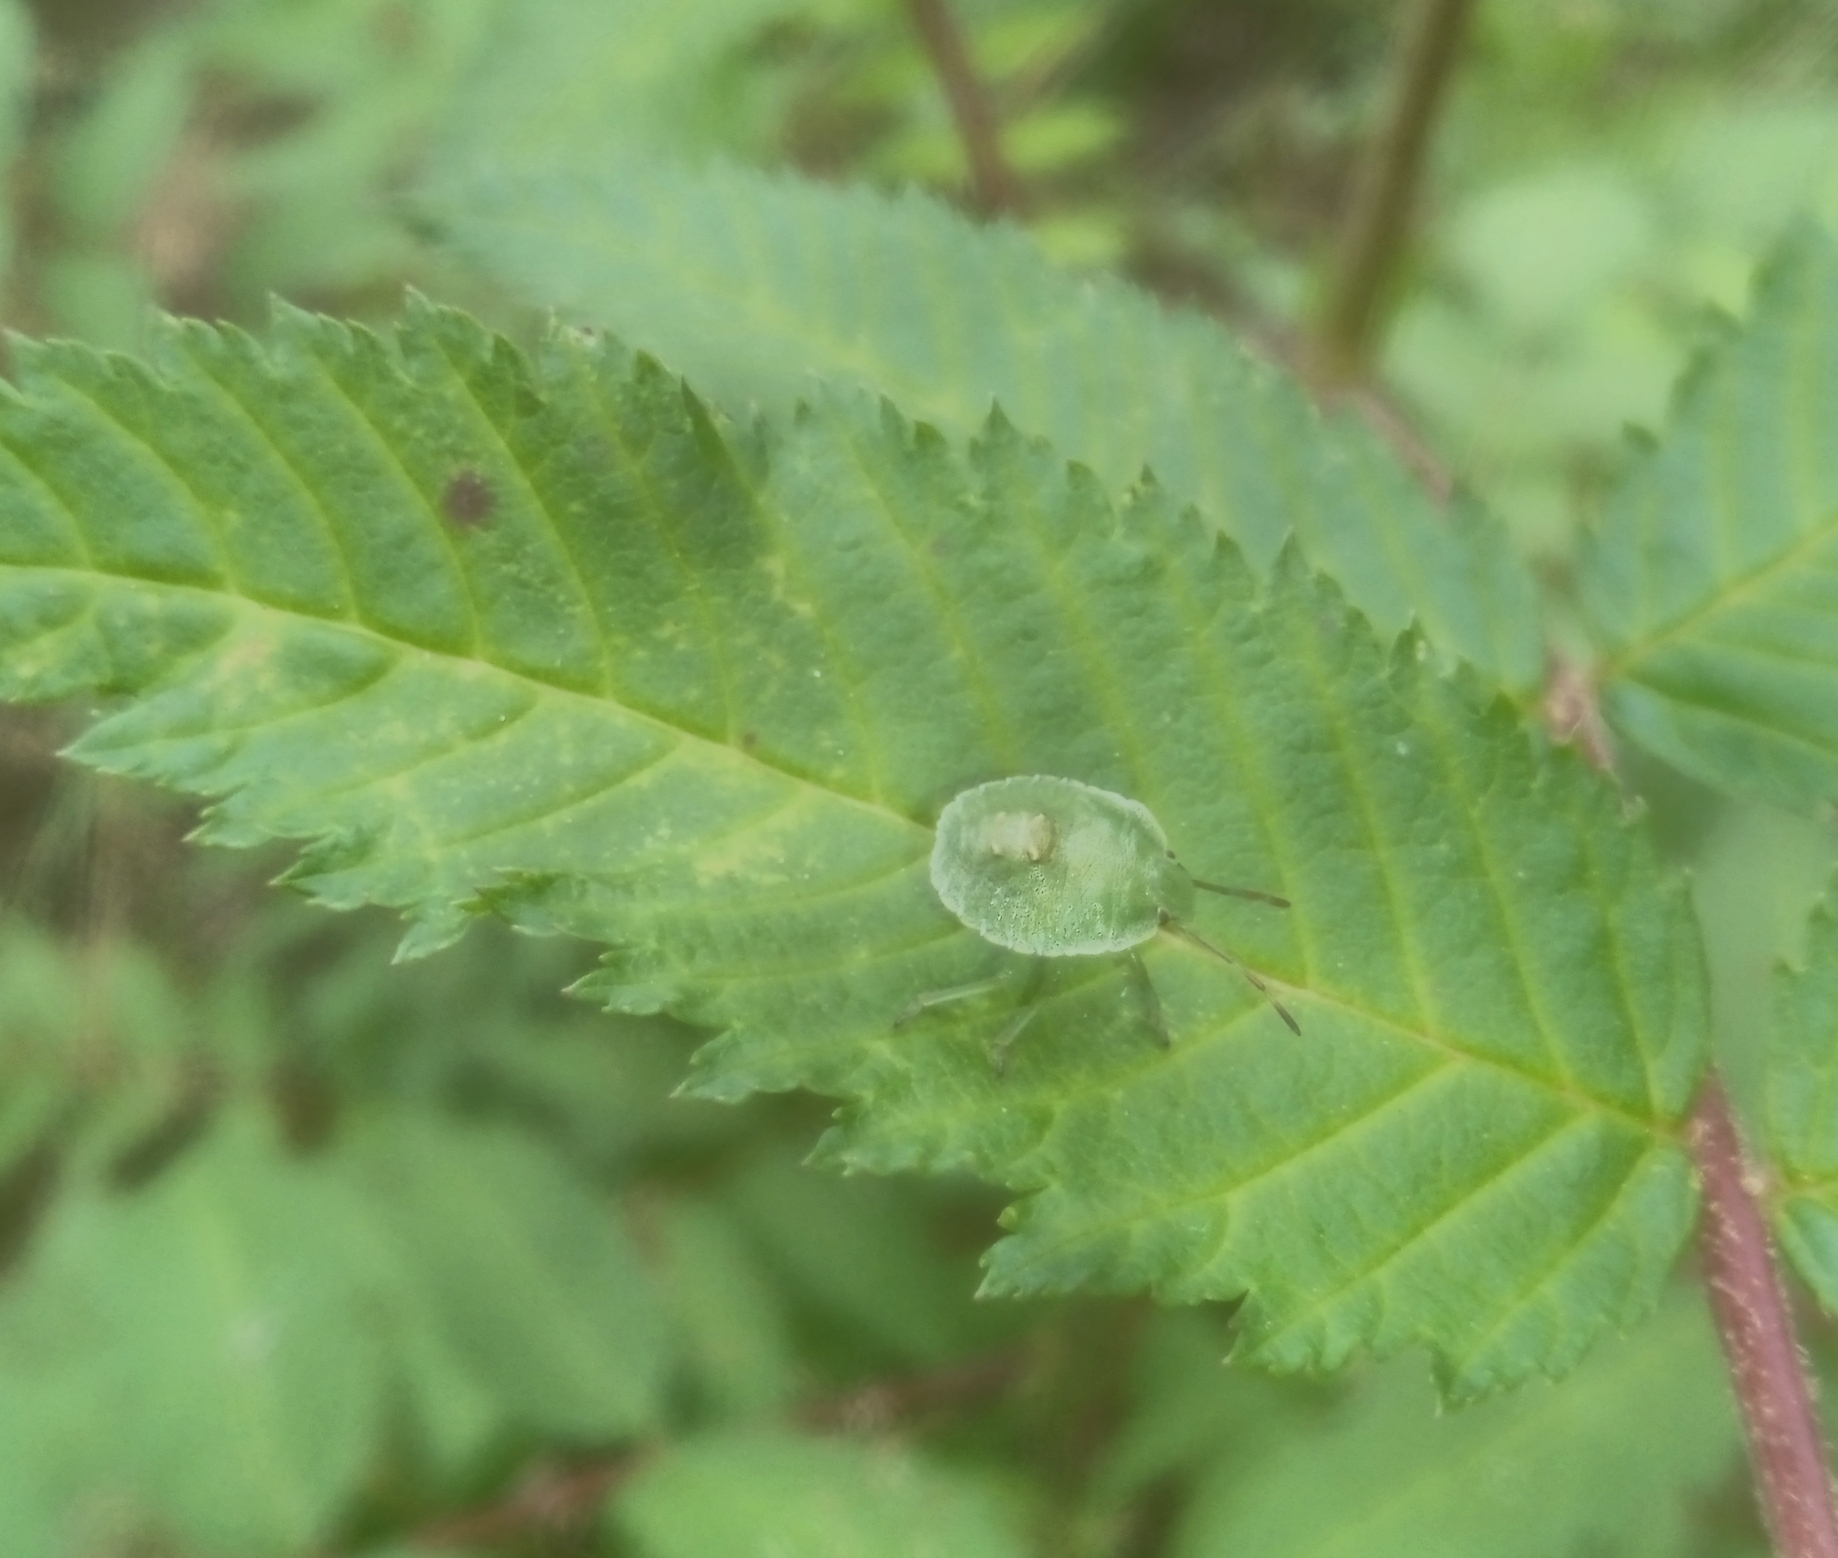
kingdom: Animalia
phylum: Arthropoda
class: Insecta
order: Hemiptera
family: Pentatomidae
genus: Palomena
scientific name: Palomena prasina
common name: Green shieldbug
